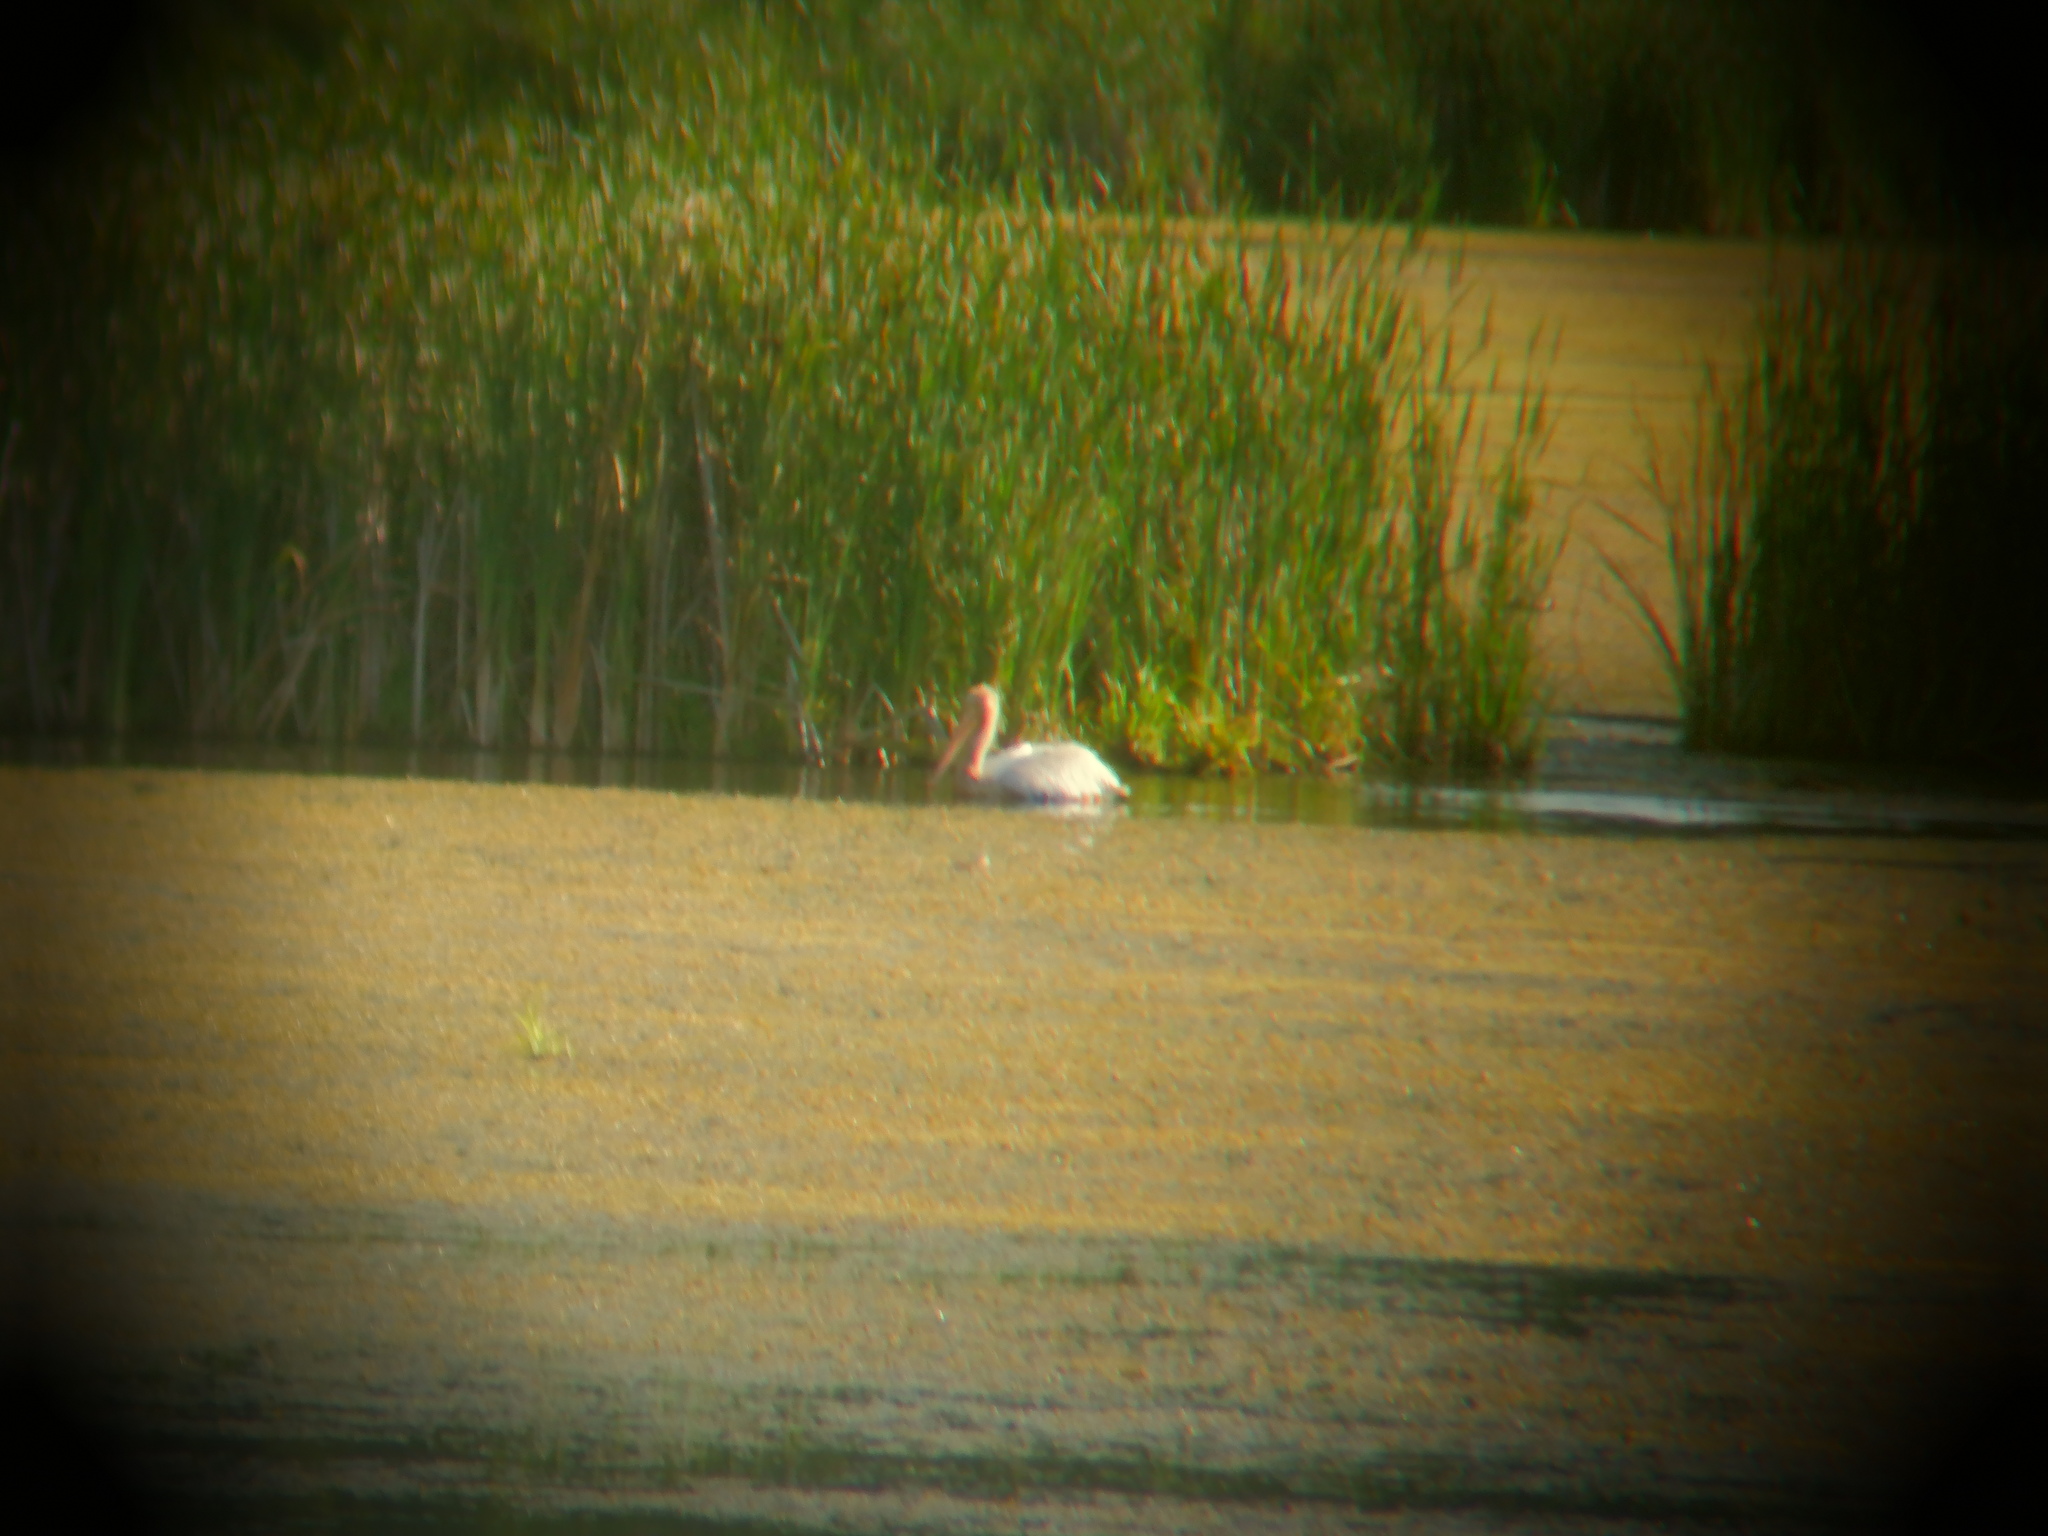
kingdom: Animalia
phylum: Chordata
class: Aves
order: Pelecaniformes
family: Pelecanidae
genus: Pelecanus
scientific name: Pelecanus erythrorhynchos
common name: American white pelican
